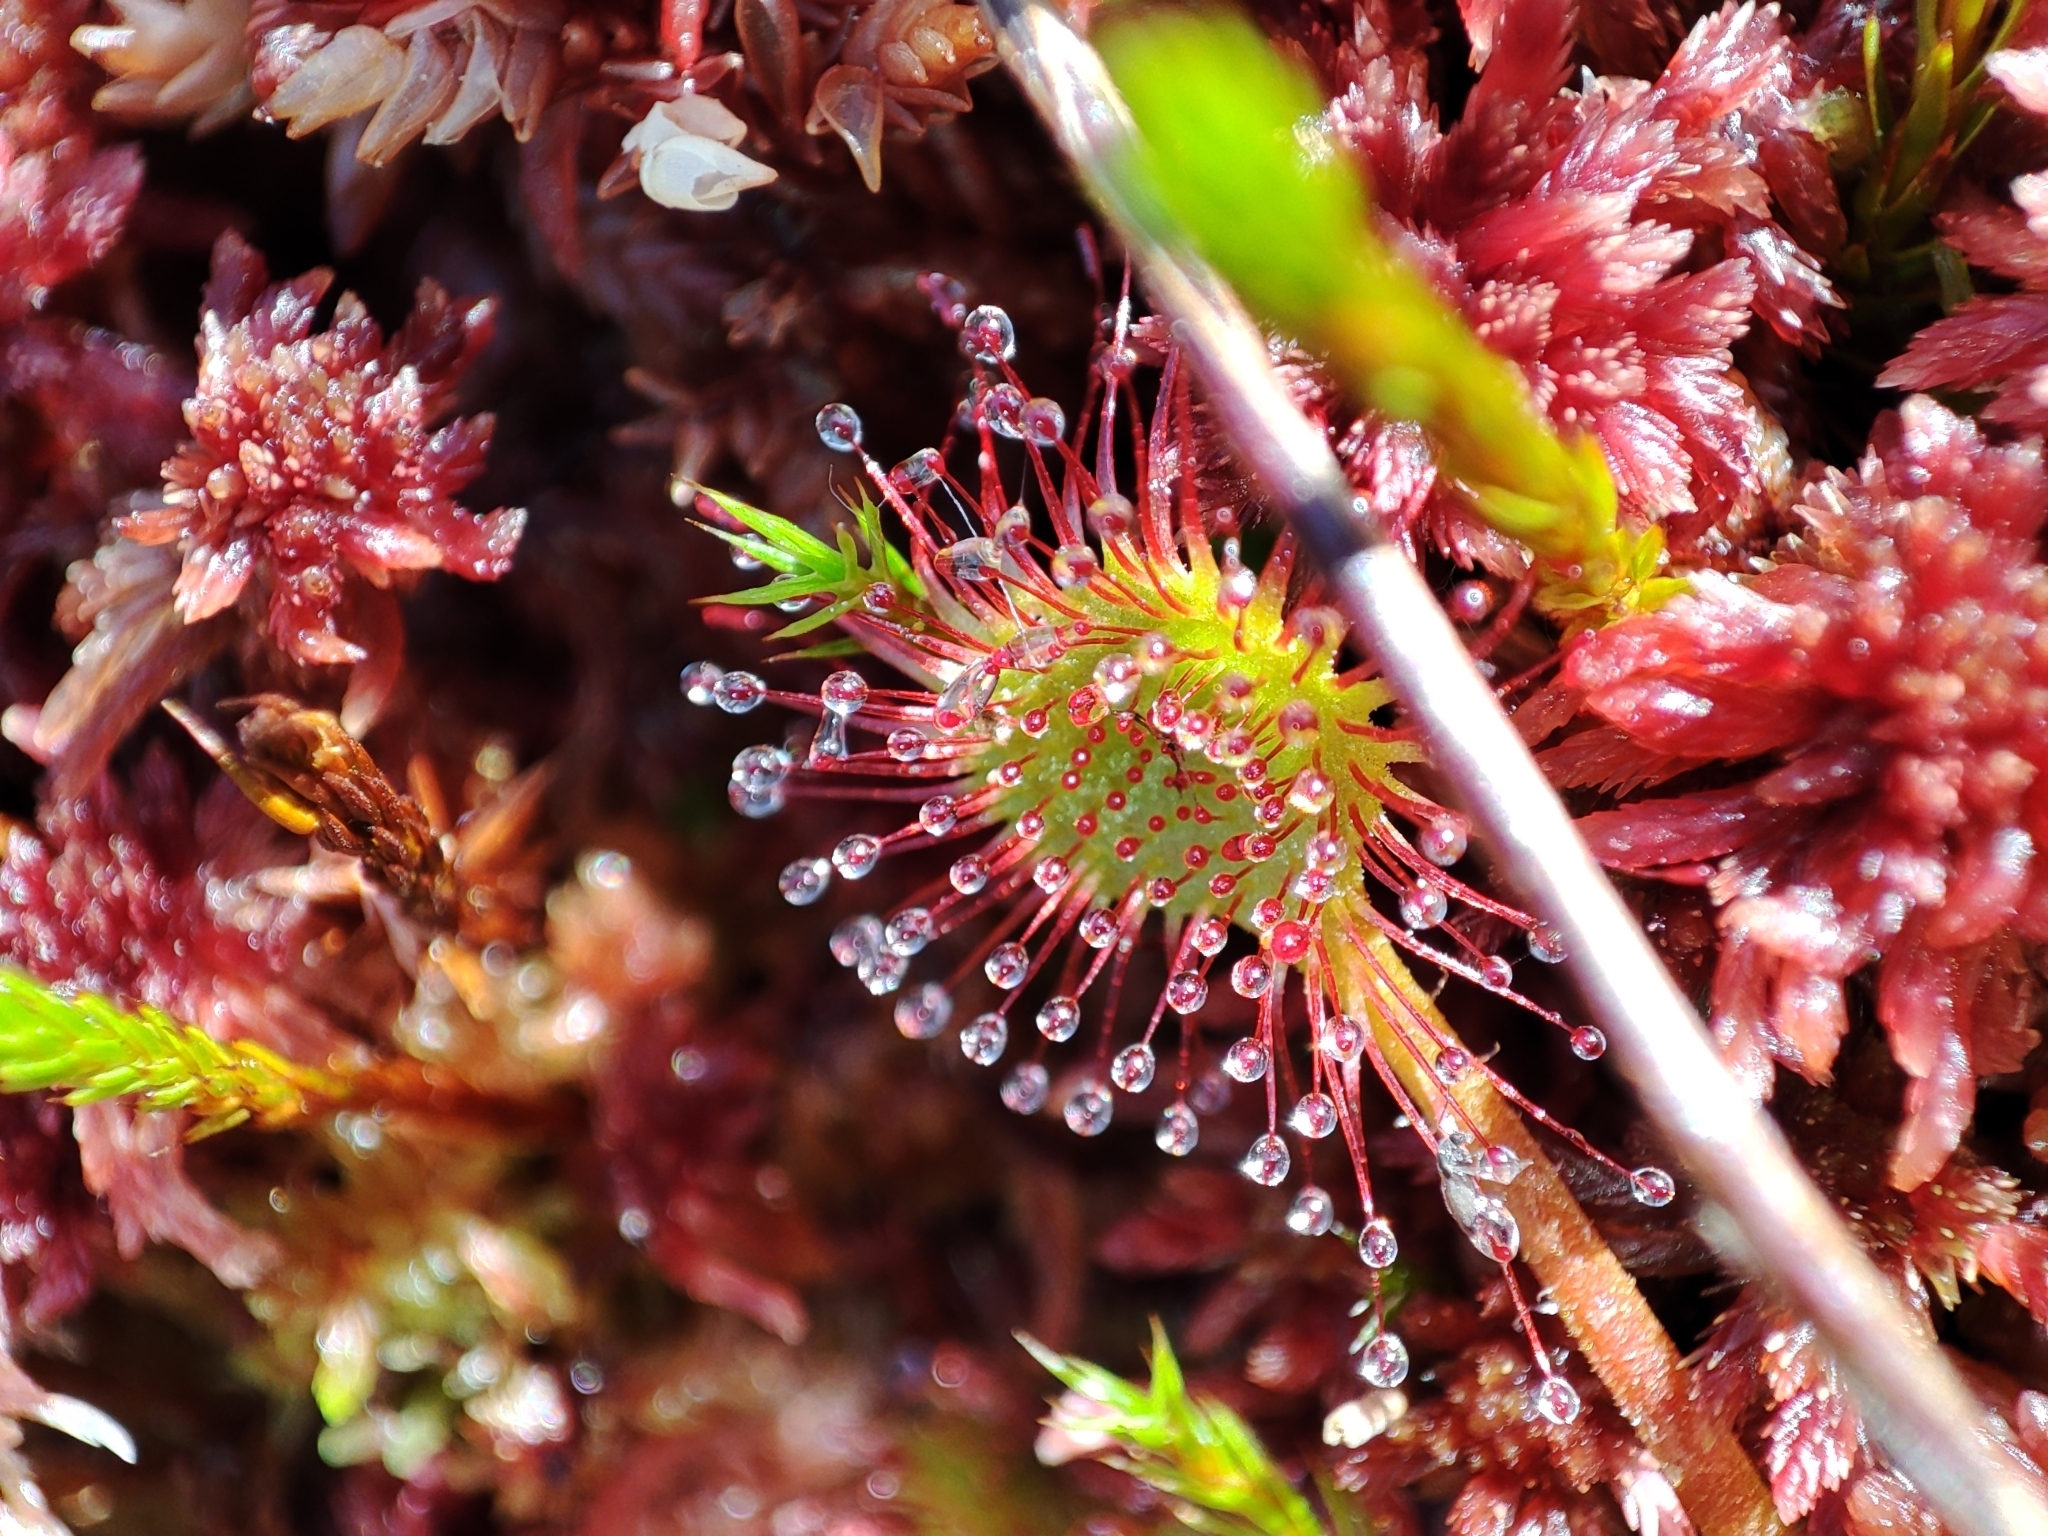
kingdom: Plantae
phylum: Tracheophyta
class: Magnoliopsida
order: Caryophyllales
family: Droseraceae
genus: Drosera
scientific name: Drosera rotundifolia
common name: Round-leaved sundew
